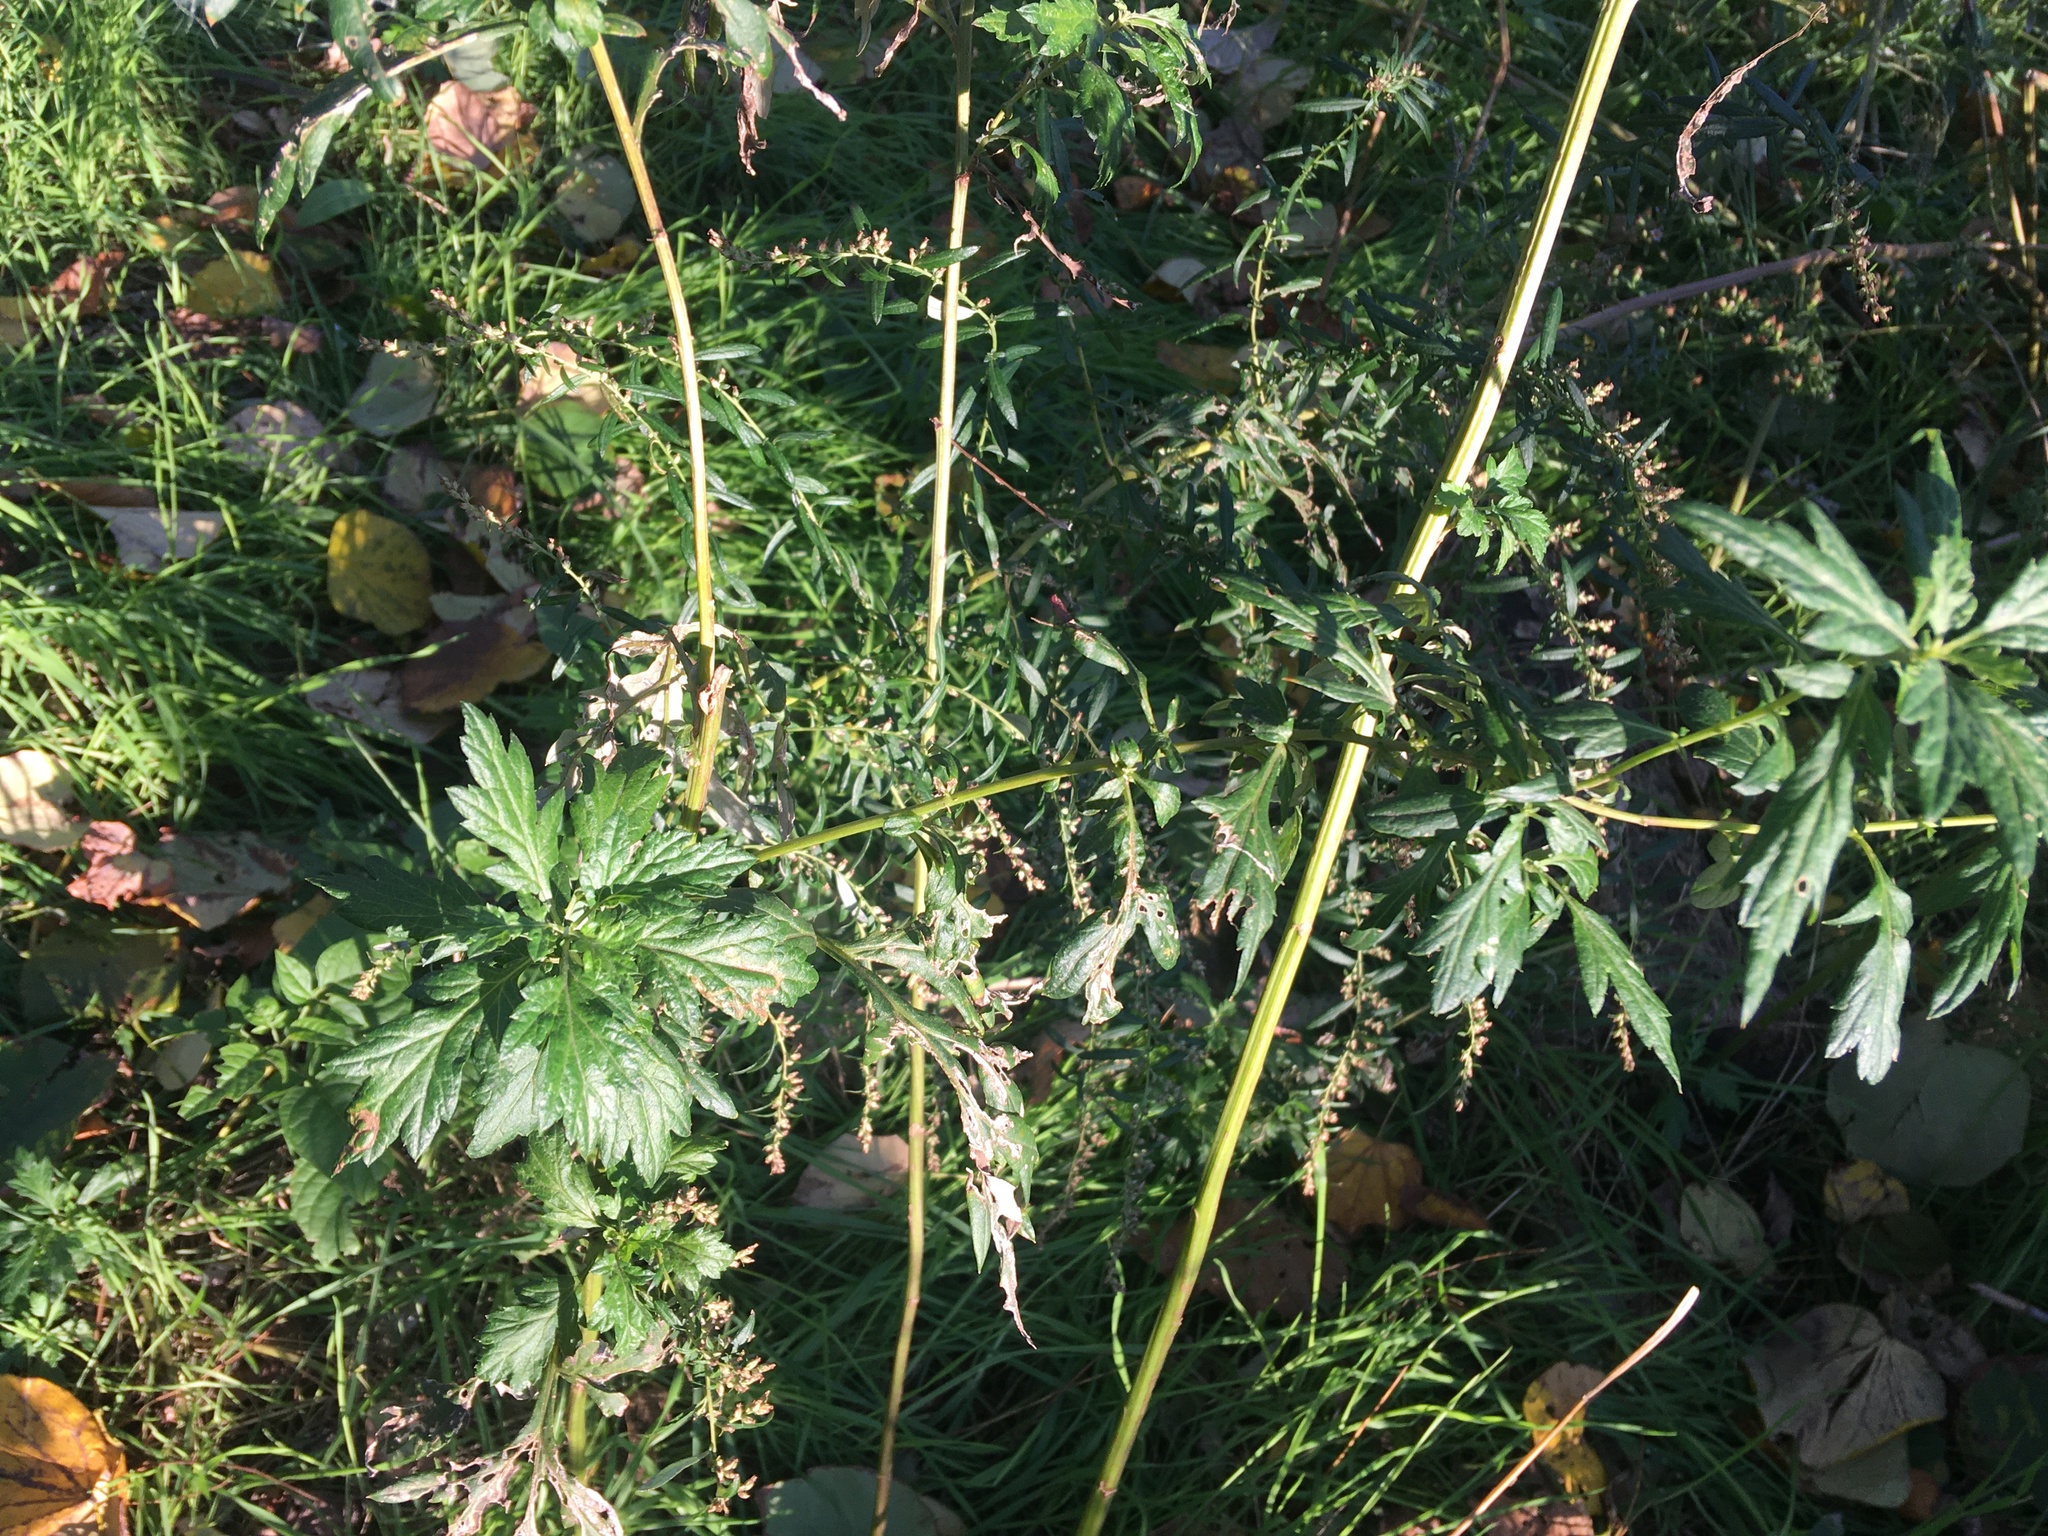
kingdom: Plantae
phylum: Tracheophyta
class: Magnoliopsida
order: Asterales
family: Asteraceae
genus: Artemisia
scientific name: Artemisia vulgaris
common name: Mugwort
